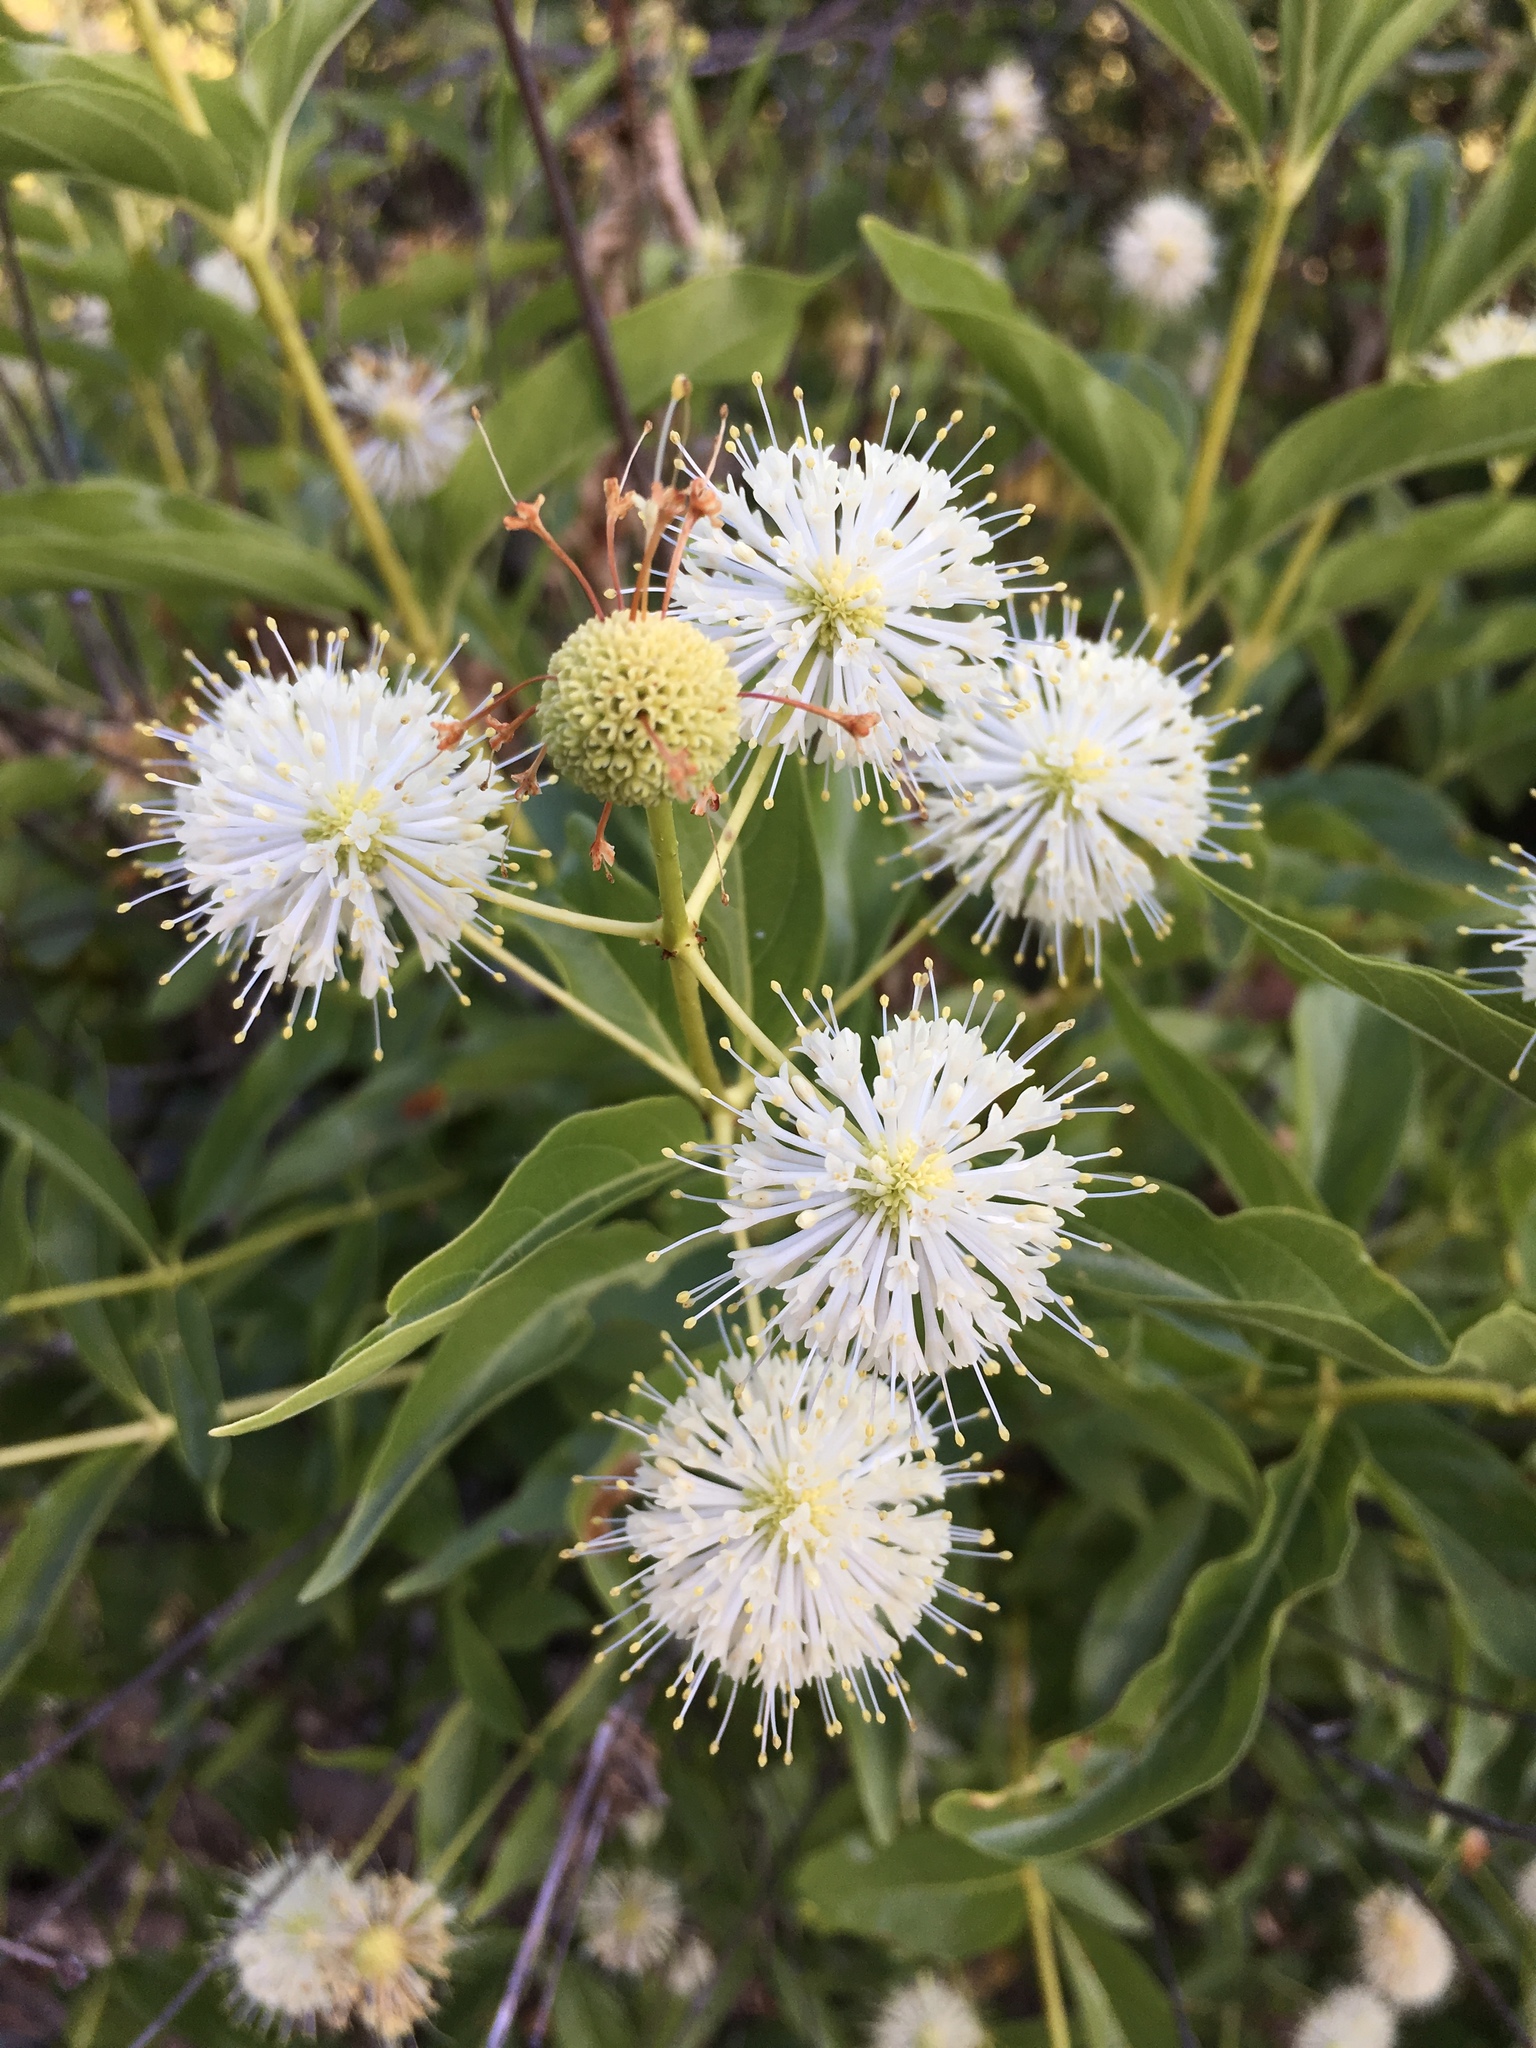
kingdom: Plantae
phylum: Tracheophyta
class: Magnoliopsida
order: Gentianales
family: Rubiaceae
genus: Cephalanthus
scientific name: Cephalanthus occidentalis
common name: Button-willow
